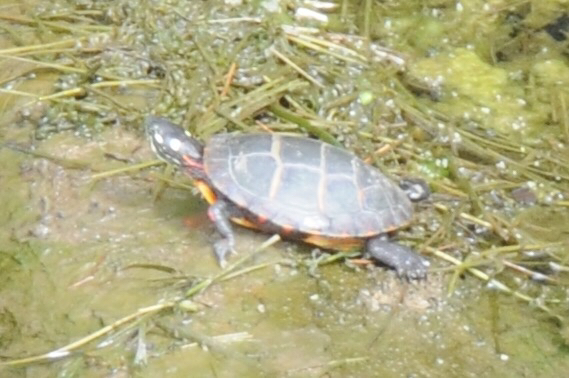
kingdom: Animalia
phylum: Chordata
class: Testudines
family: Emydidae
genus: Chrysemys
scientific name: Chrysemys picta
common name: Painted turtle
